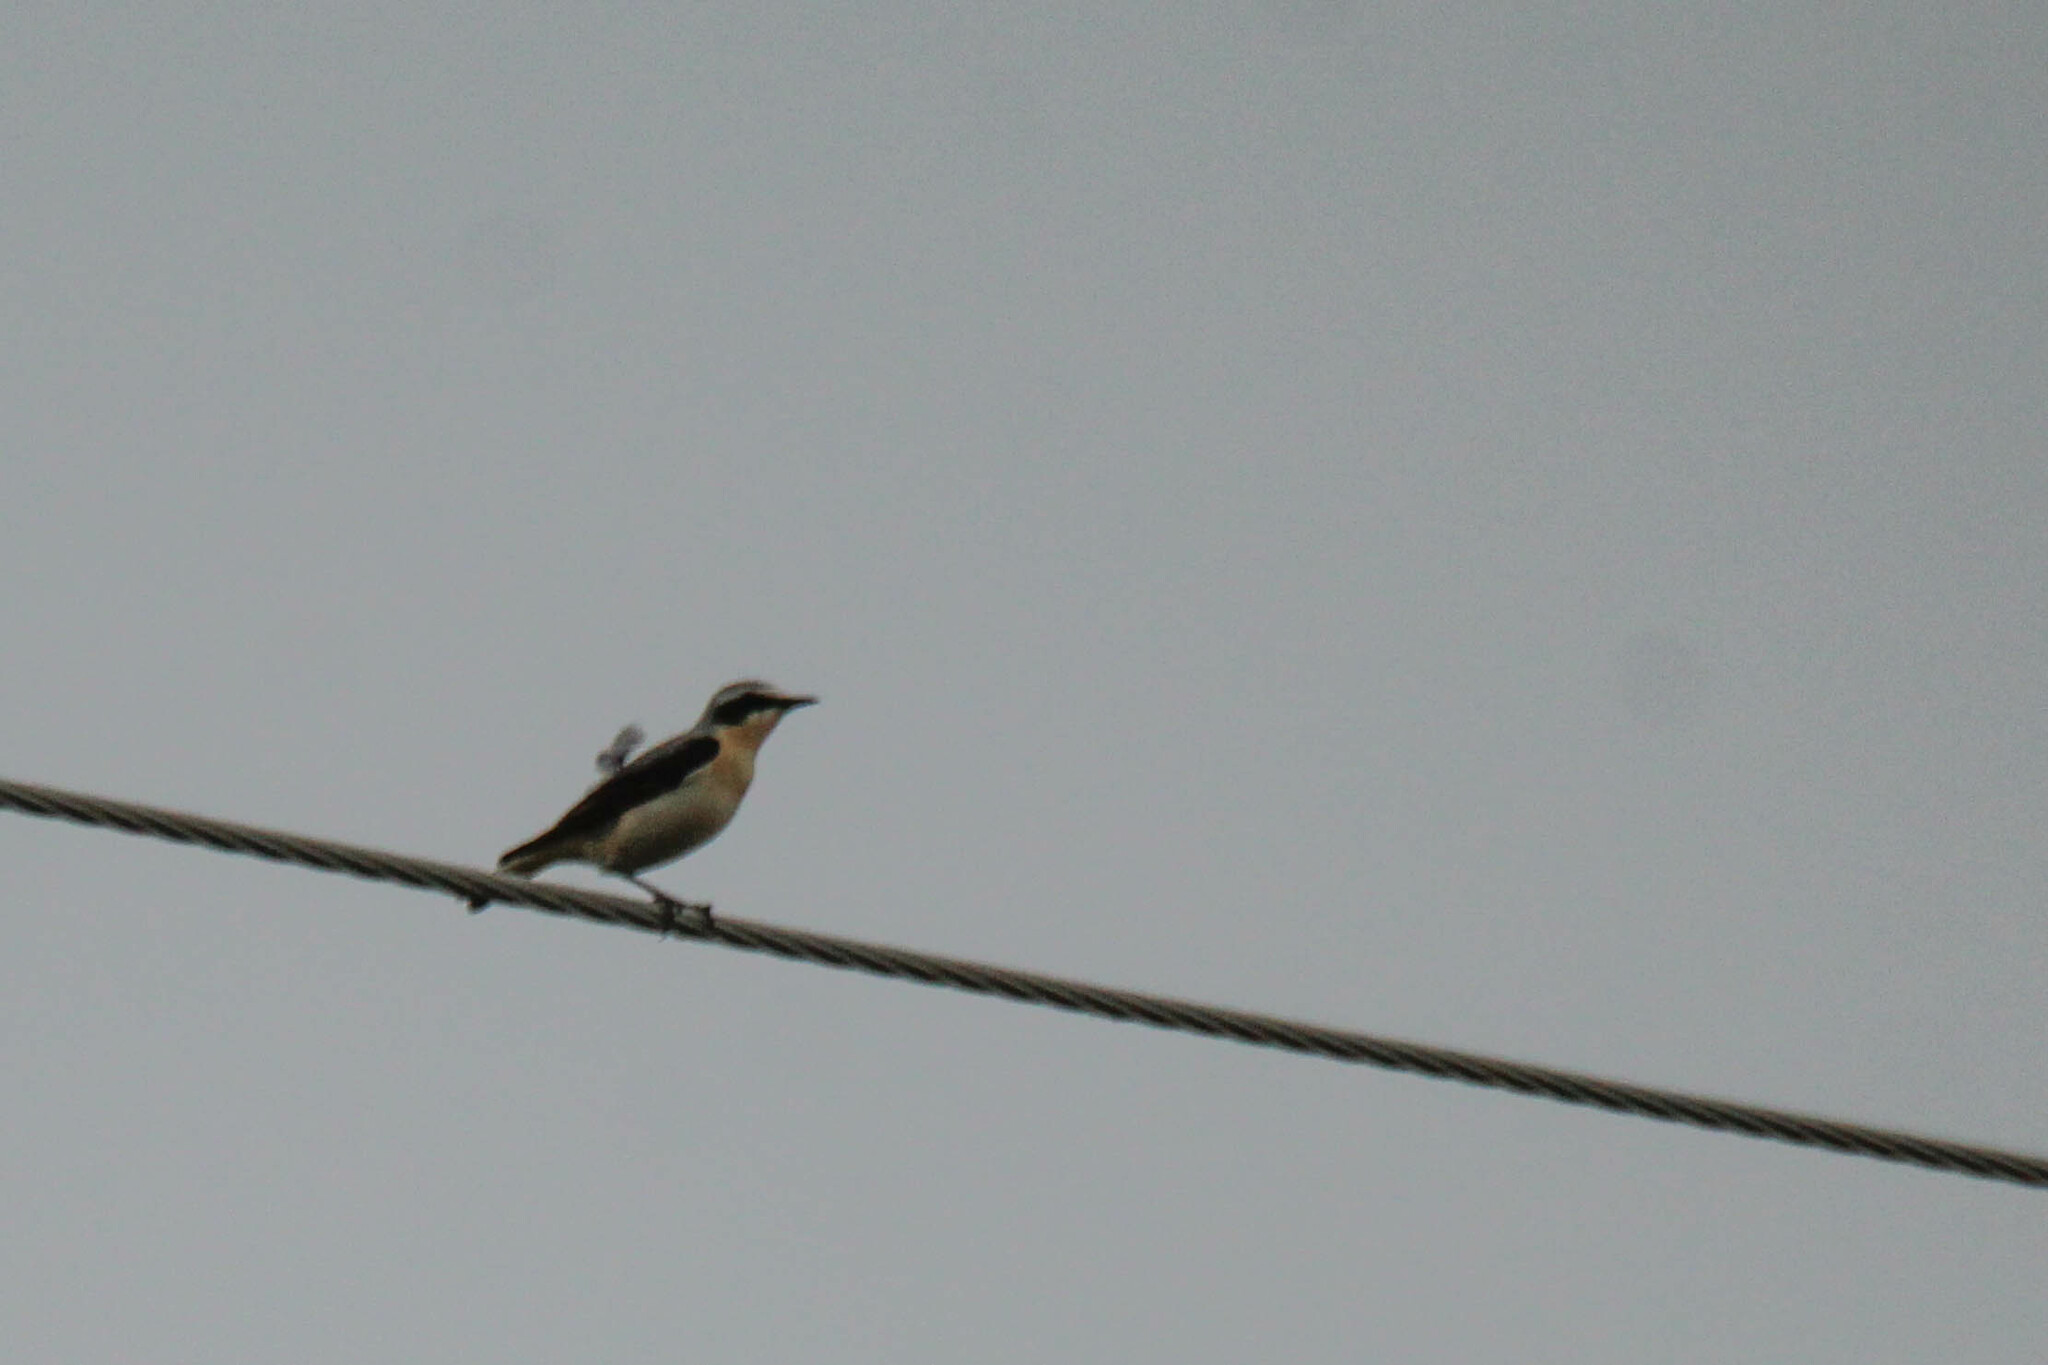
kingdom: Animalia
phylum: Chordata
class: Aves
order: Passeriformes
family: Muscicapidae
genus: Oenanthe
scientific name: Oenanthe oenanthe
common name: Northern wheatear
